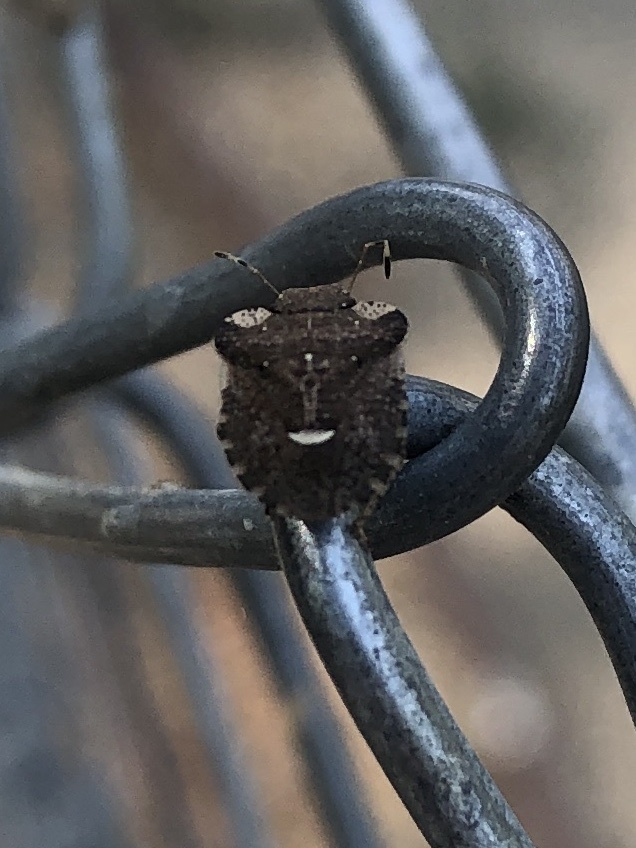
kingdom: Animalia
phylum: Arthropoda
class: Insecta
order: Hemiptera
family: Pentatomidae
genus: Dyroderes
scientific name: Dyroderes umbraculatus
